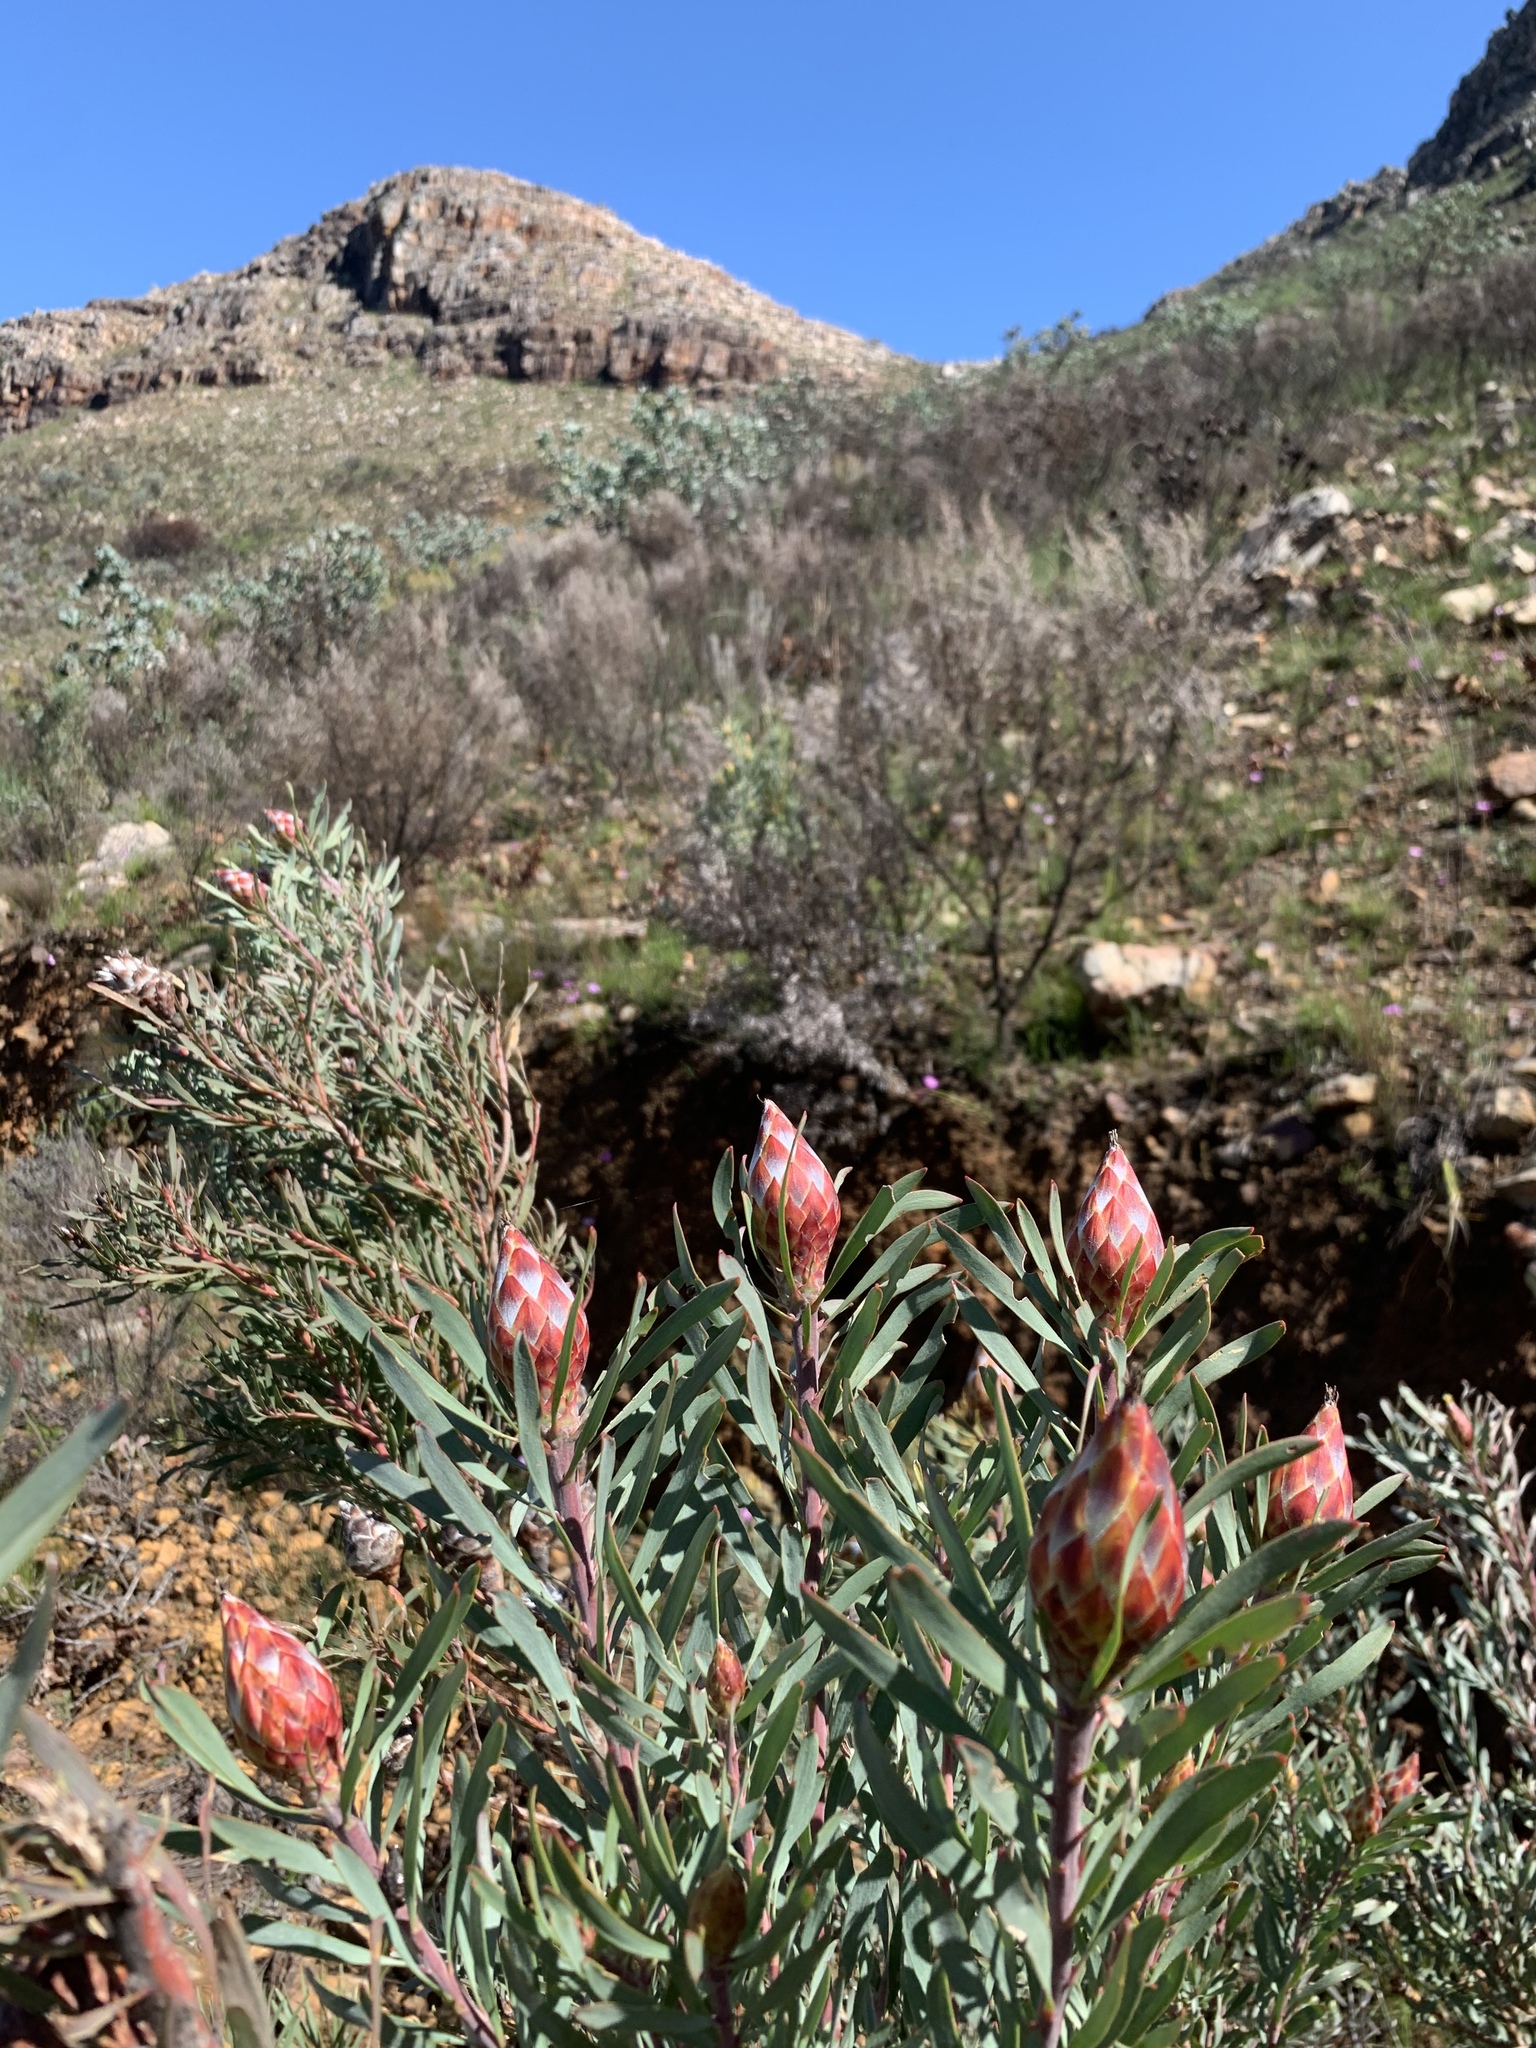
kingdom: Plantae
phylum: Tracheophyta
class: Magnoliopsida
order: Proteales
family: Proteaceae
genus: Leucadendron
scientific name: Leucadendron rubrum
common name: Spinning top
